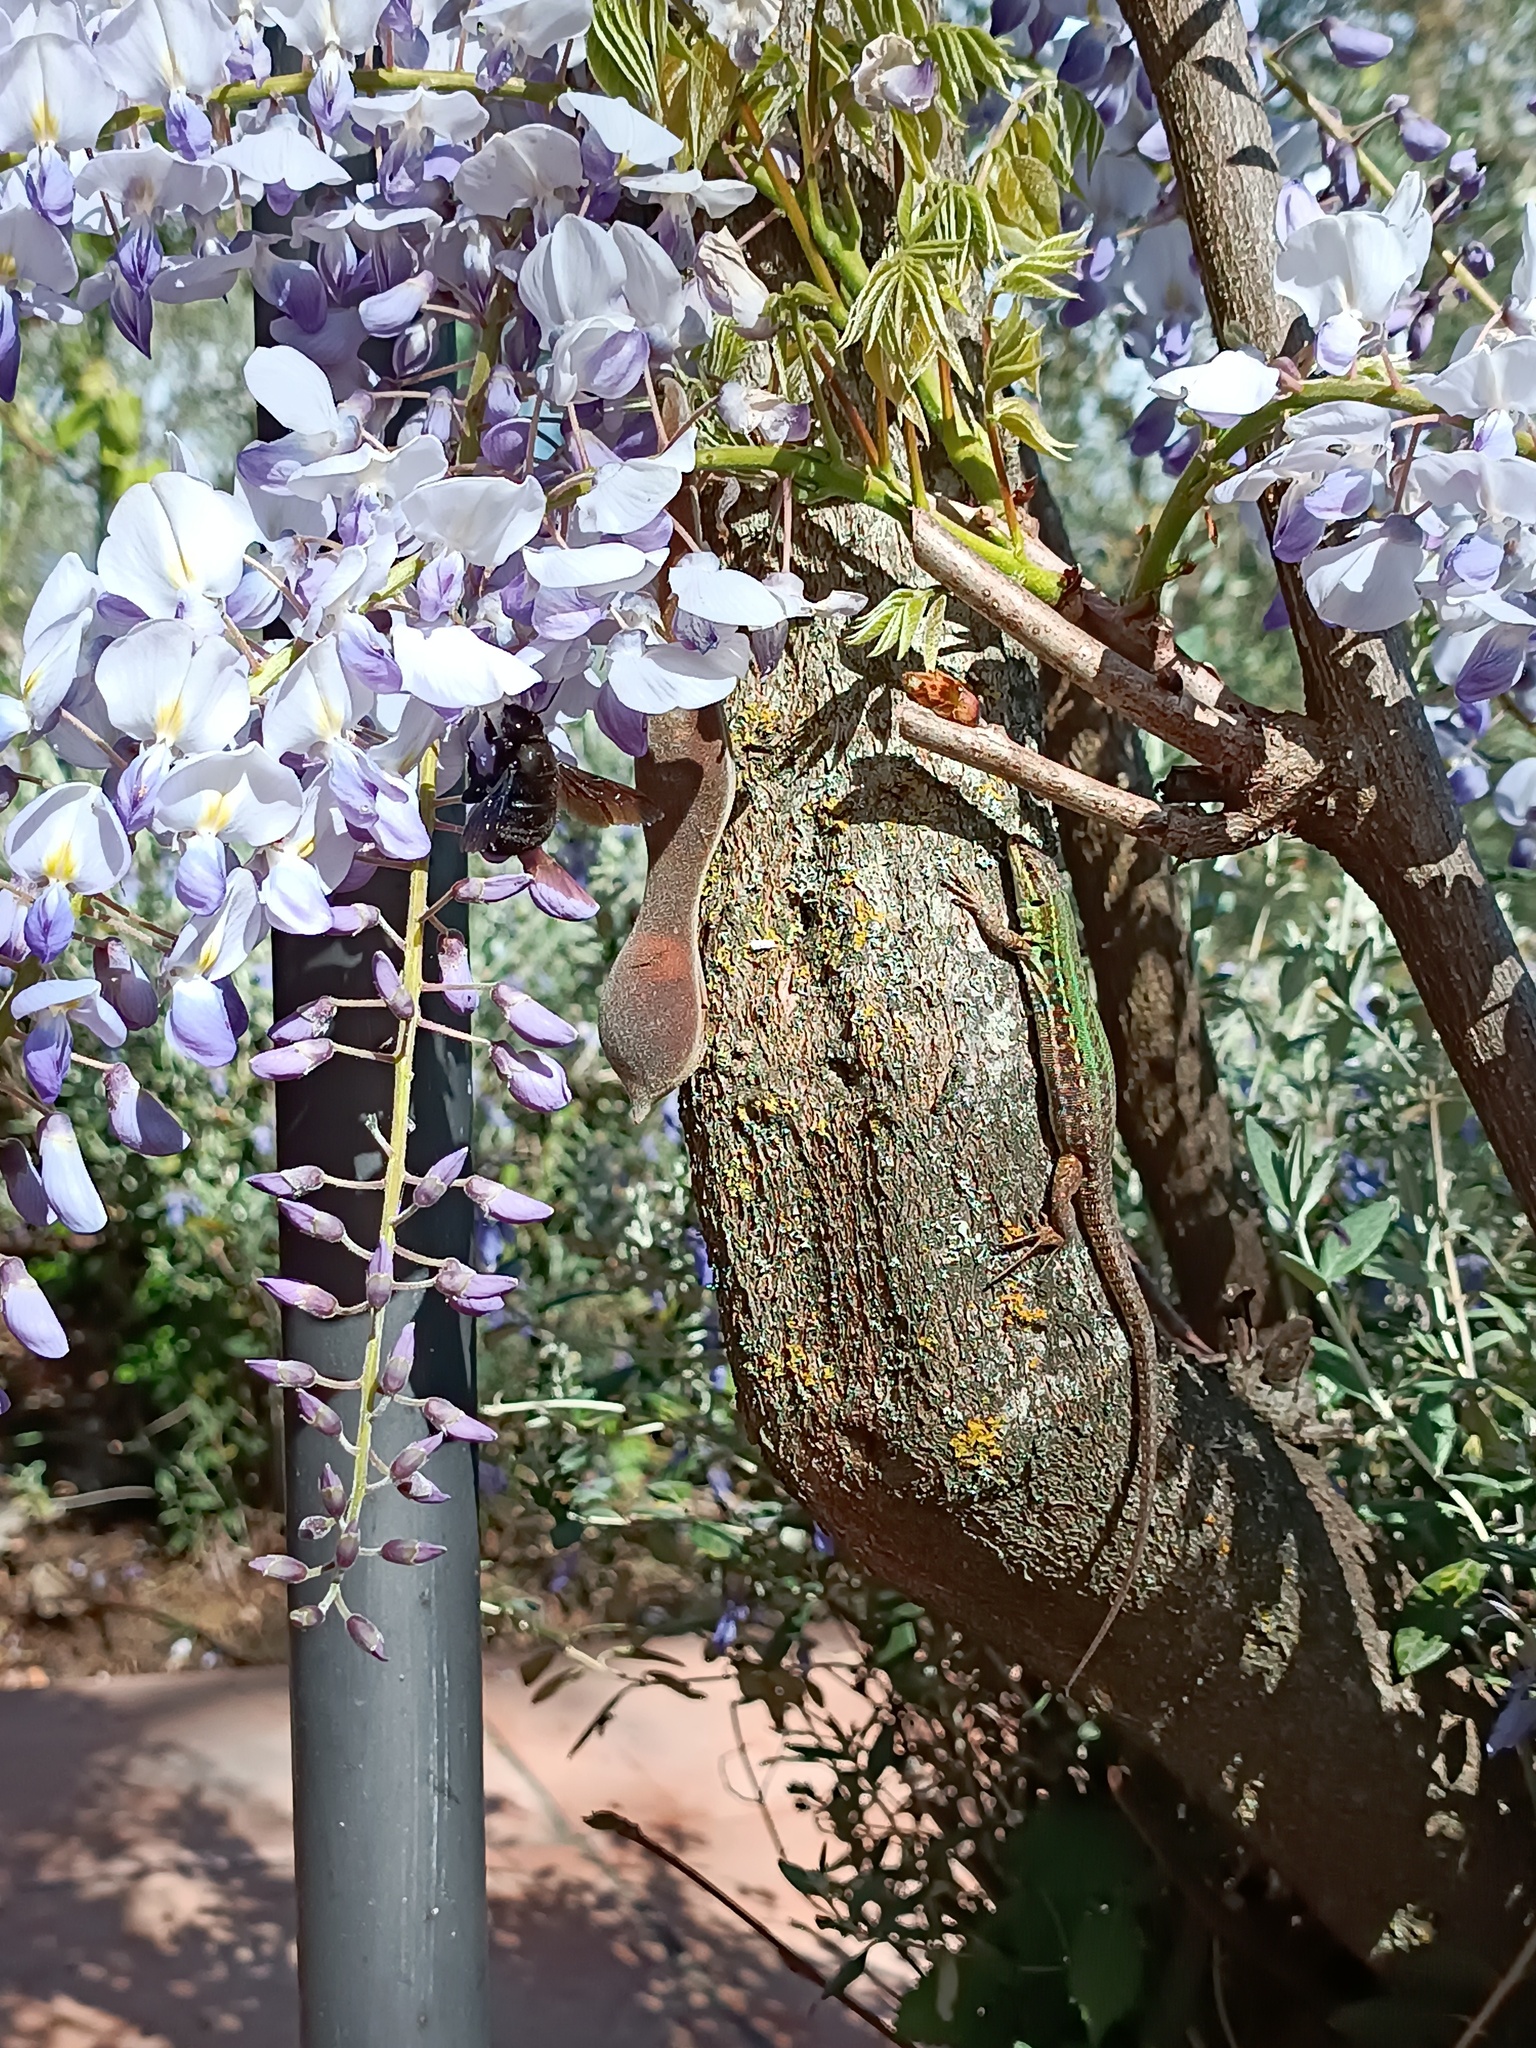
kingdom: Animalia
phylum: Arthropoda
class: Insecta
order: Hymenoptera
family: Apidae
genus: Xylocopa
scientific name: Xylocopa violacea
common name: Violet carpenter bee
